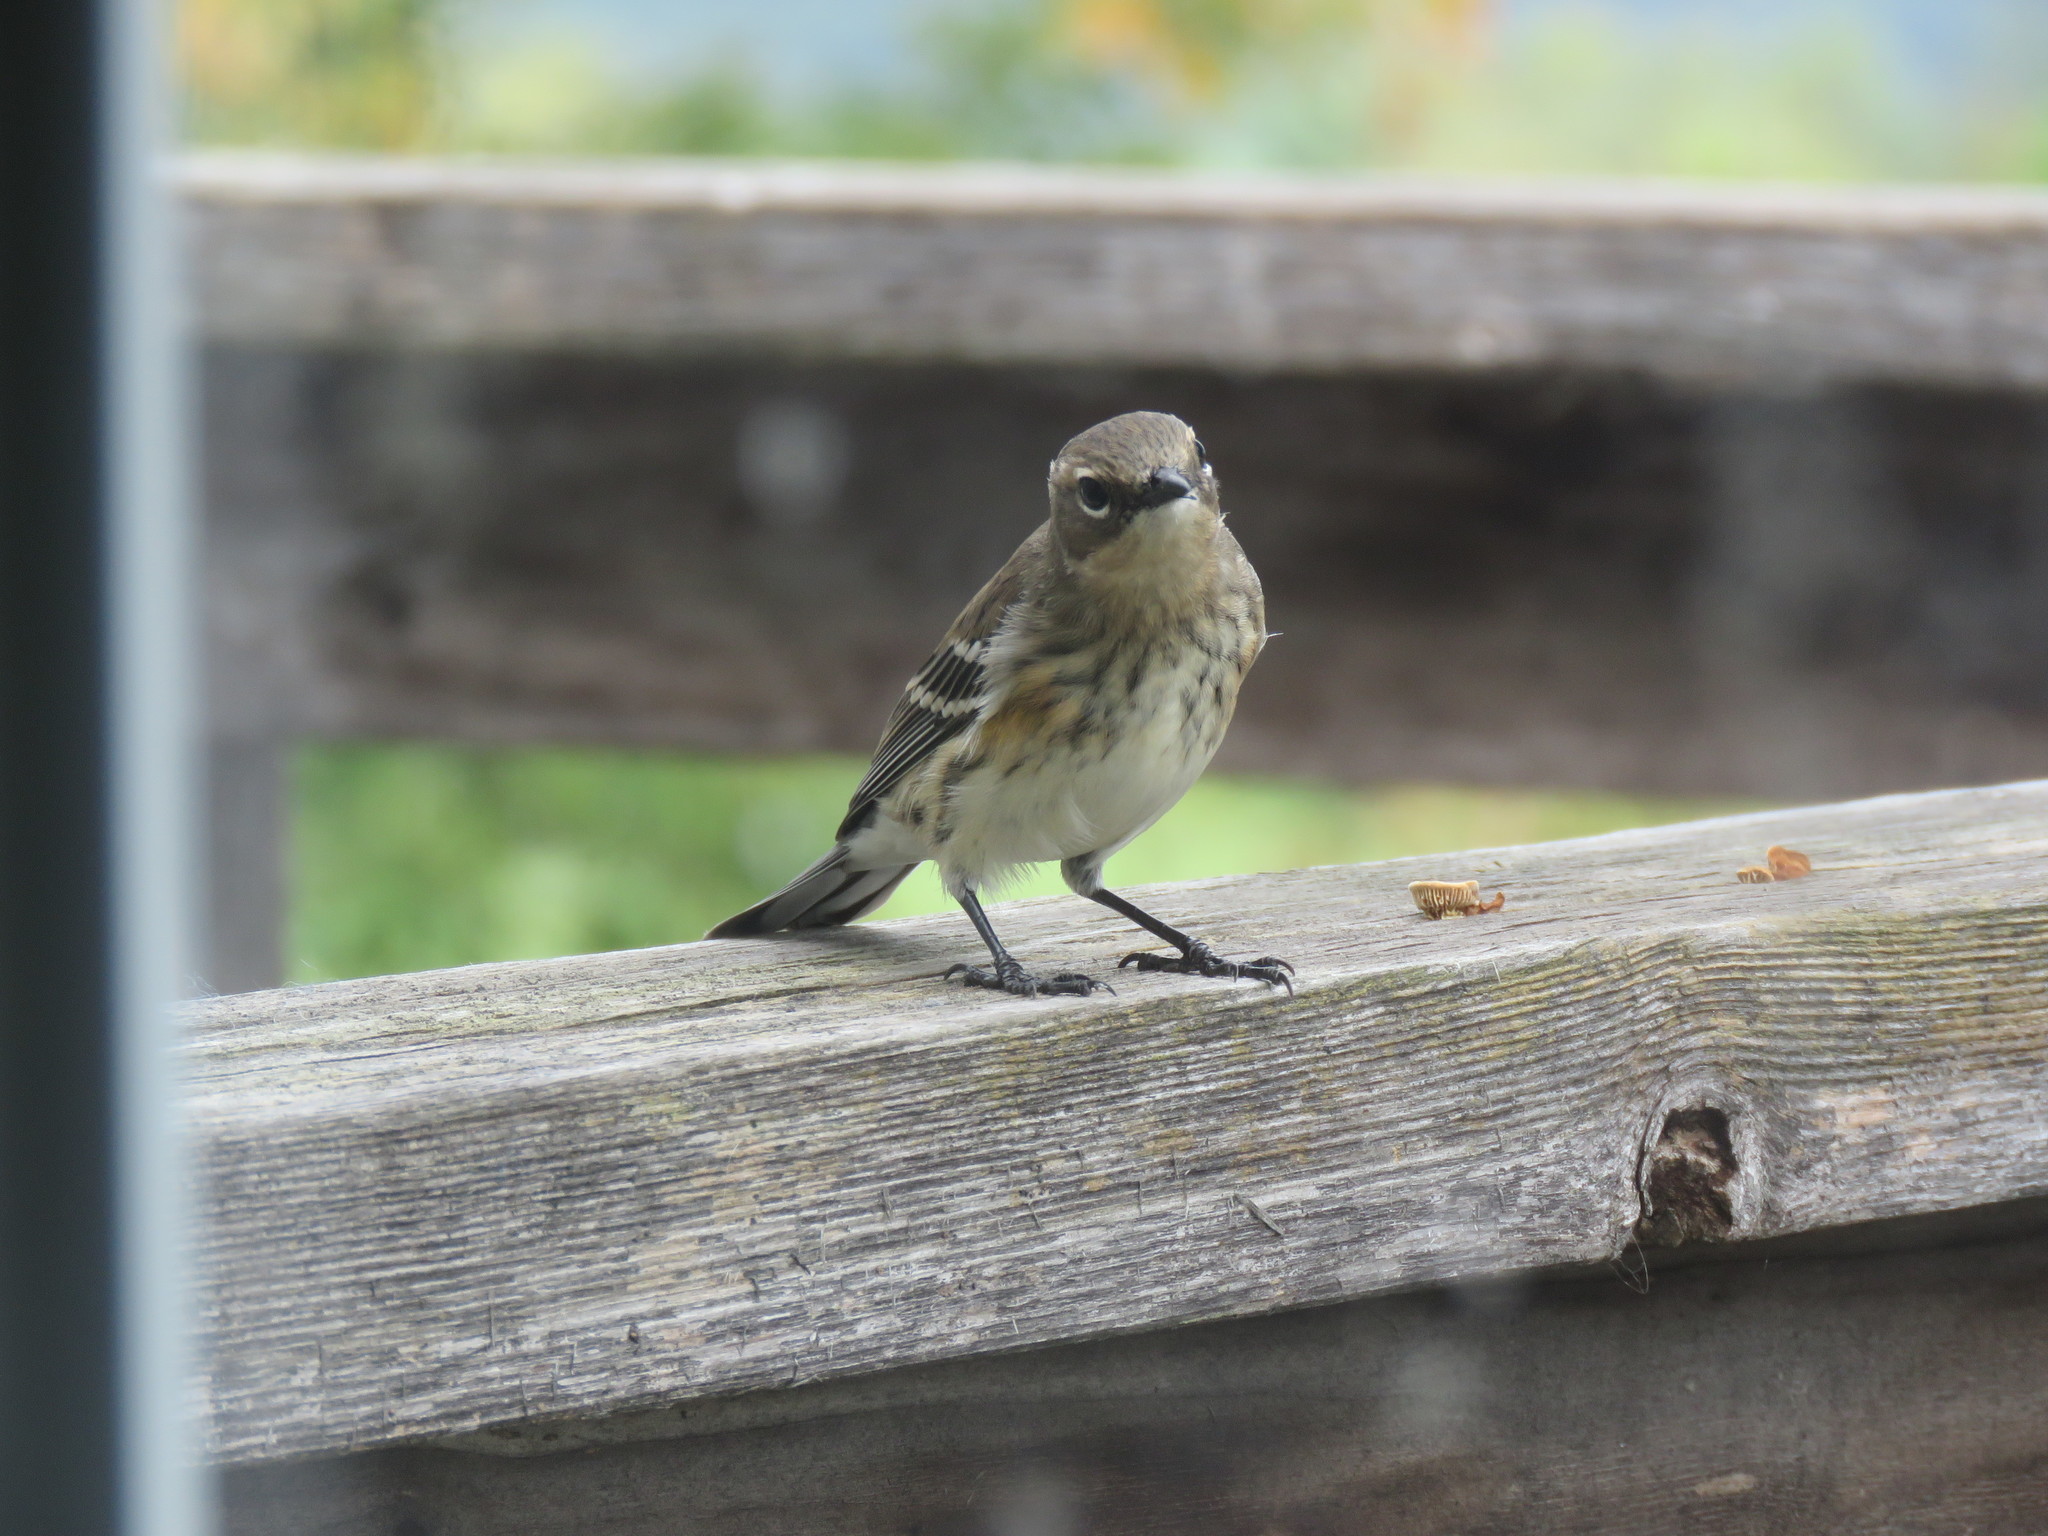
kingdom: Animalia
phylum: Chordata
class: Aves
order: Passeriformes
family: Parulidae
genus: Setophaga
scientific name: Setophaga coronata
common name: Myrtle warbler
